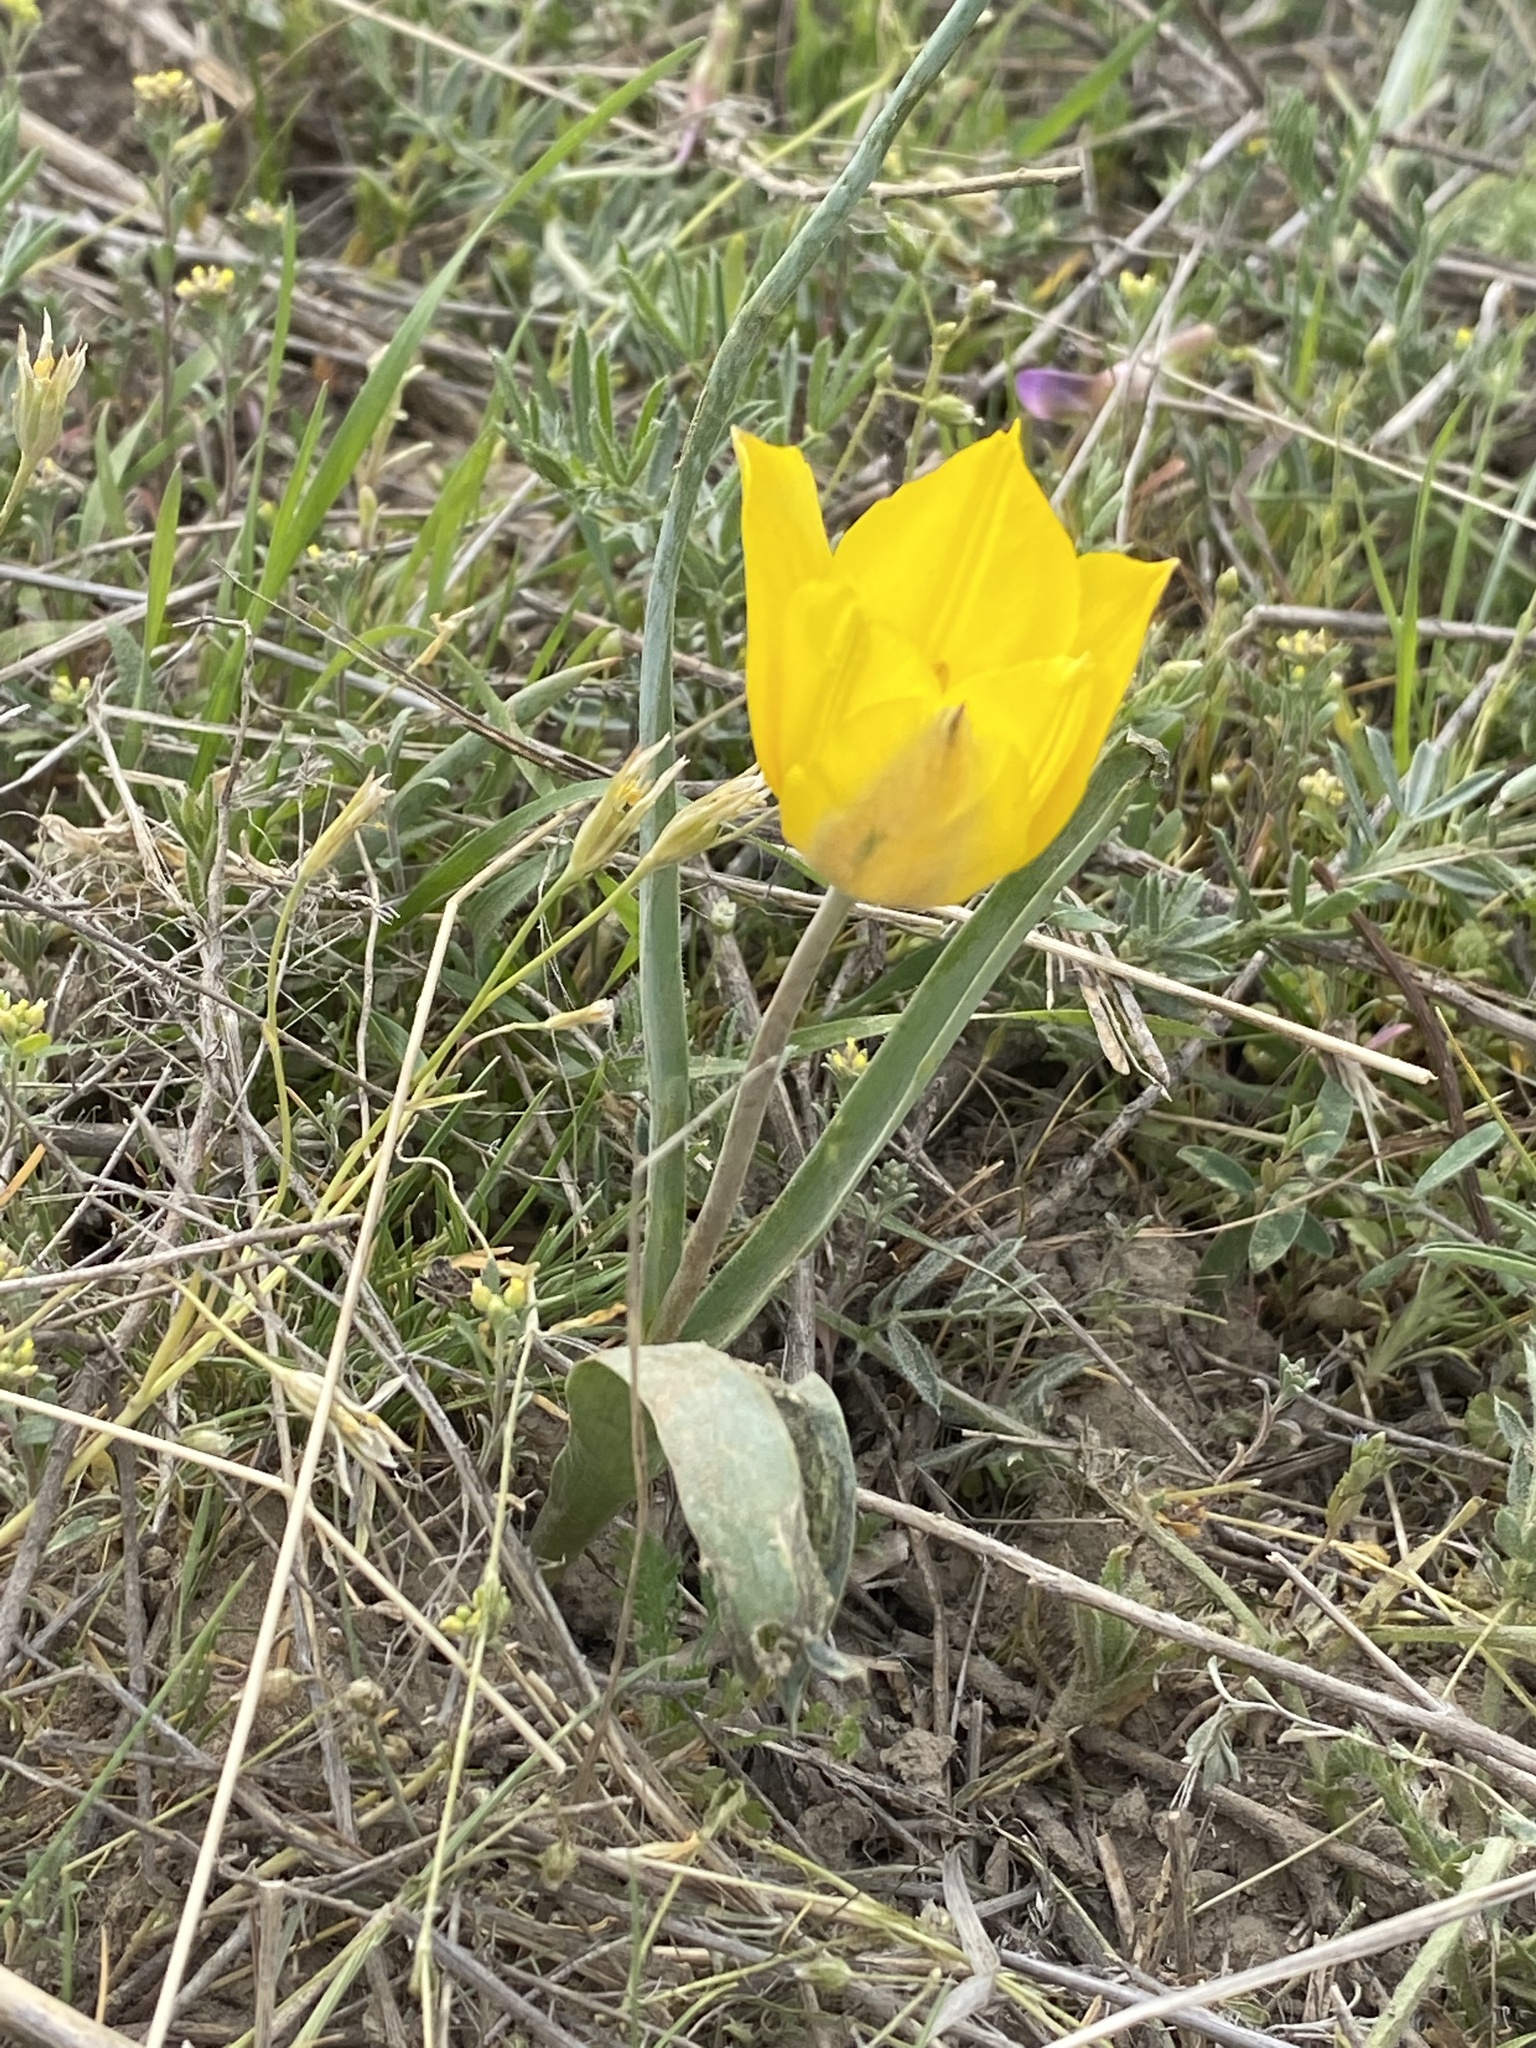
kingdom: Plantae
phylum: Tracheophyta
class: Liliopsida
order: Liliales
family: Liliaceae
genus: Tulipa
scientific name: Tulipa kolpakowskiana
